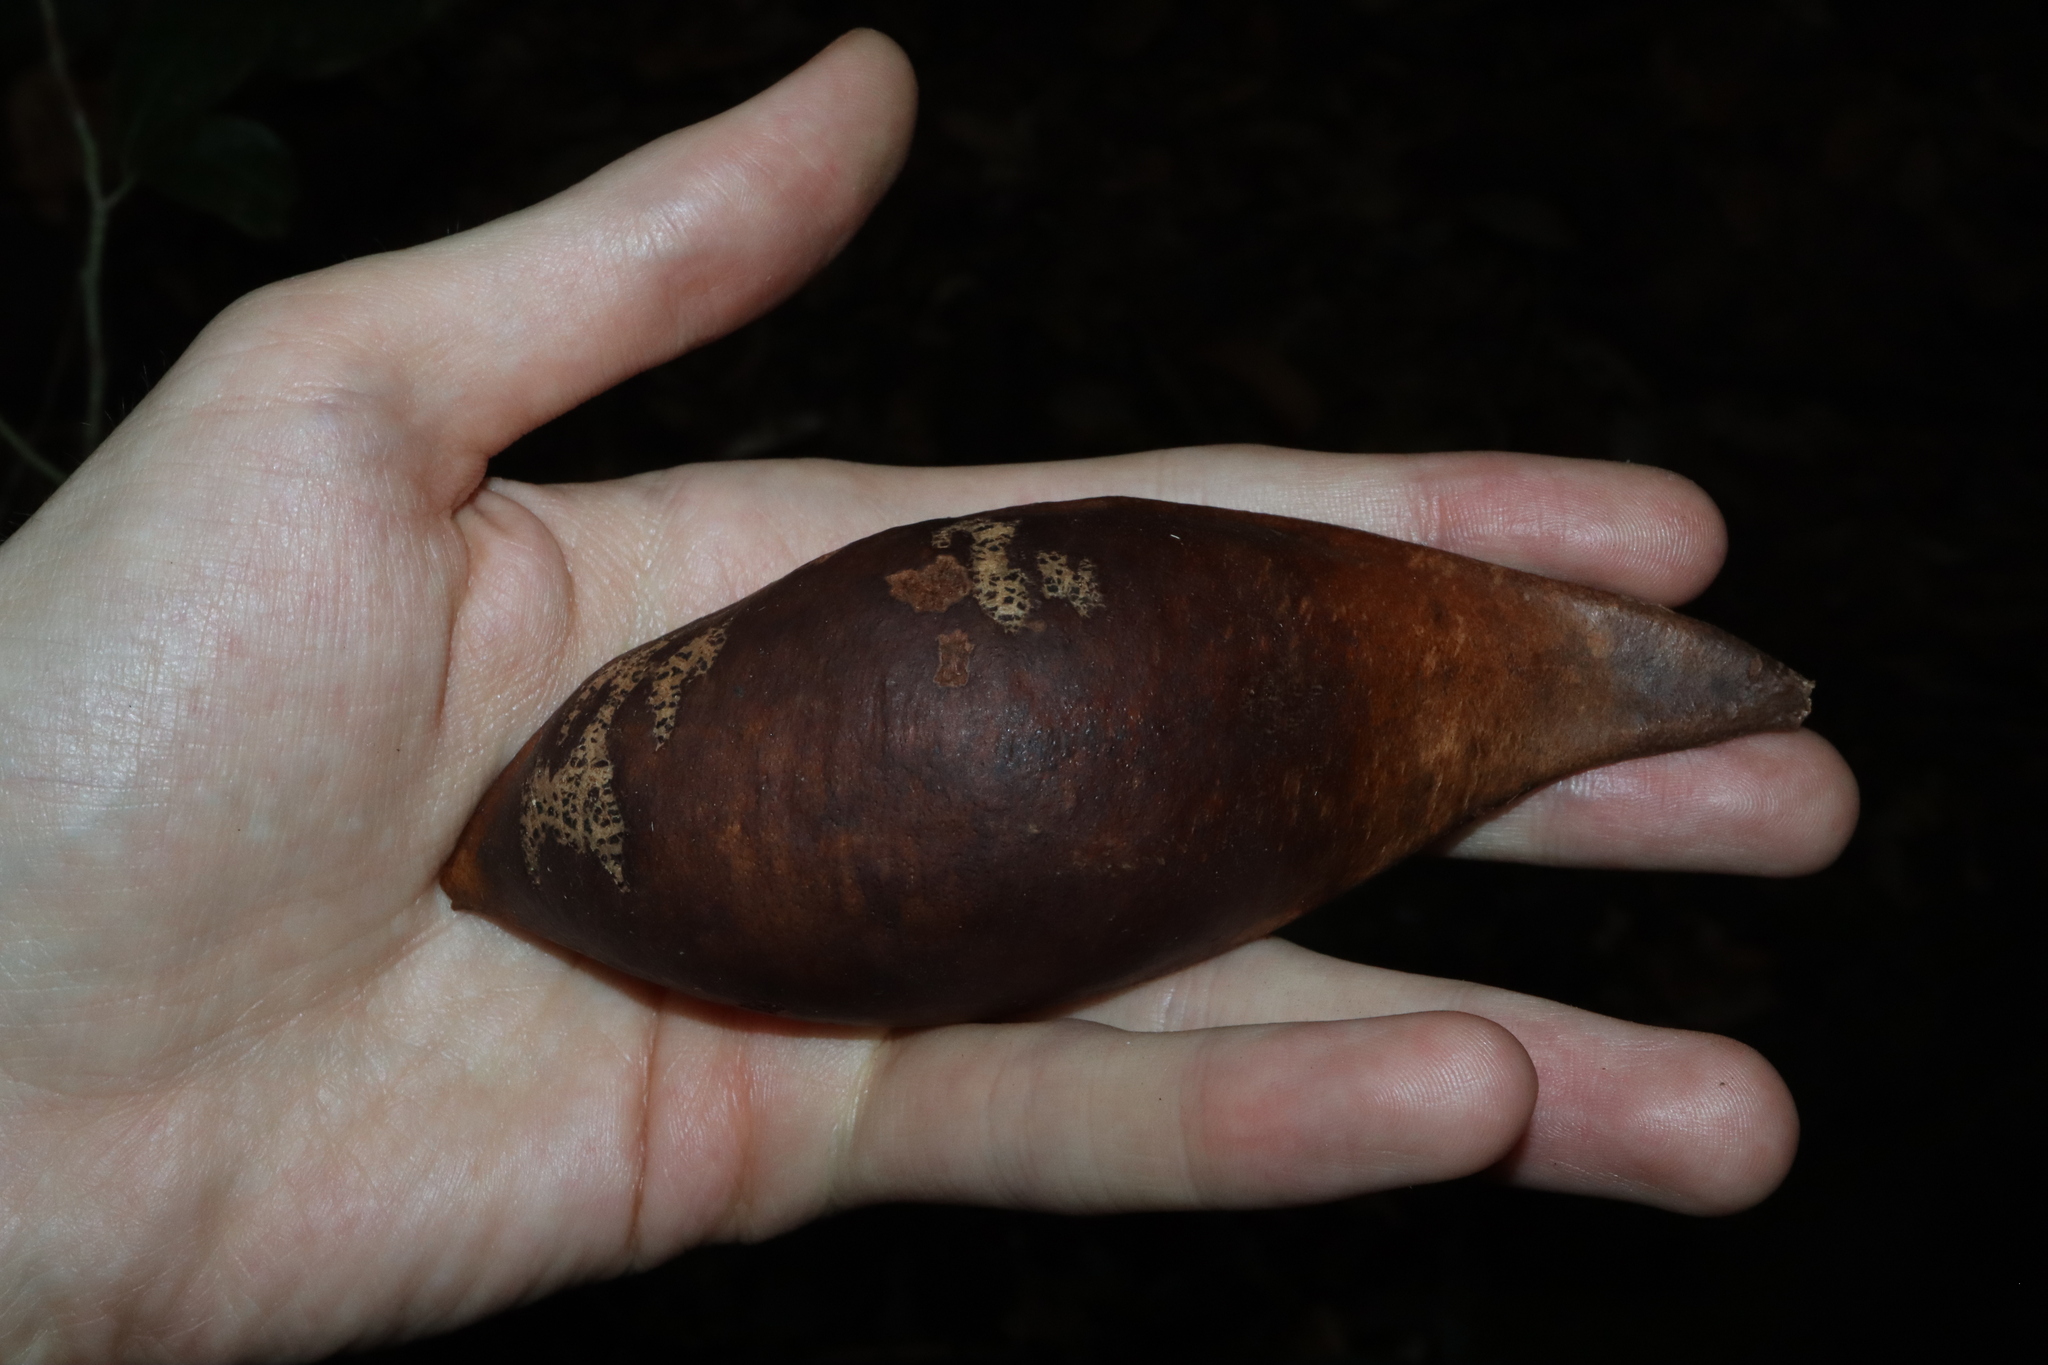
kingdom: Plantae
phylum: Tracheophyta
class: Magnoliopsida
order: Fabales
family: Fabaceae
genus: Castanospermum
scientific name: Castanospermum australe
